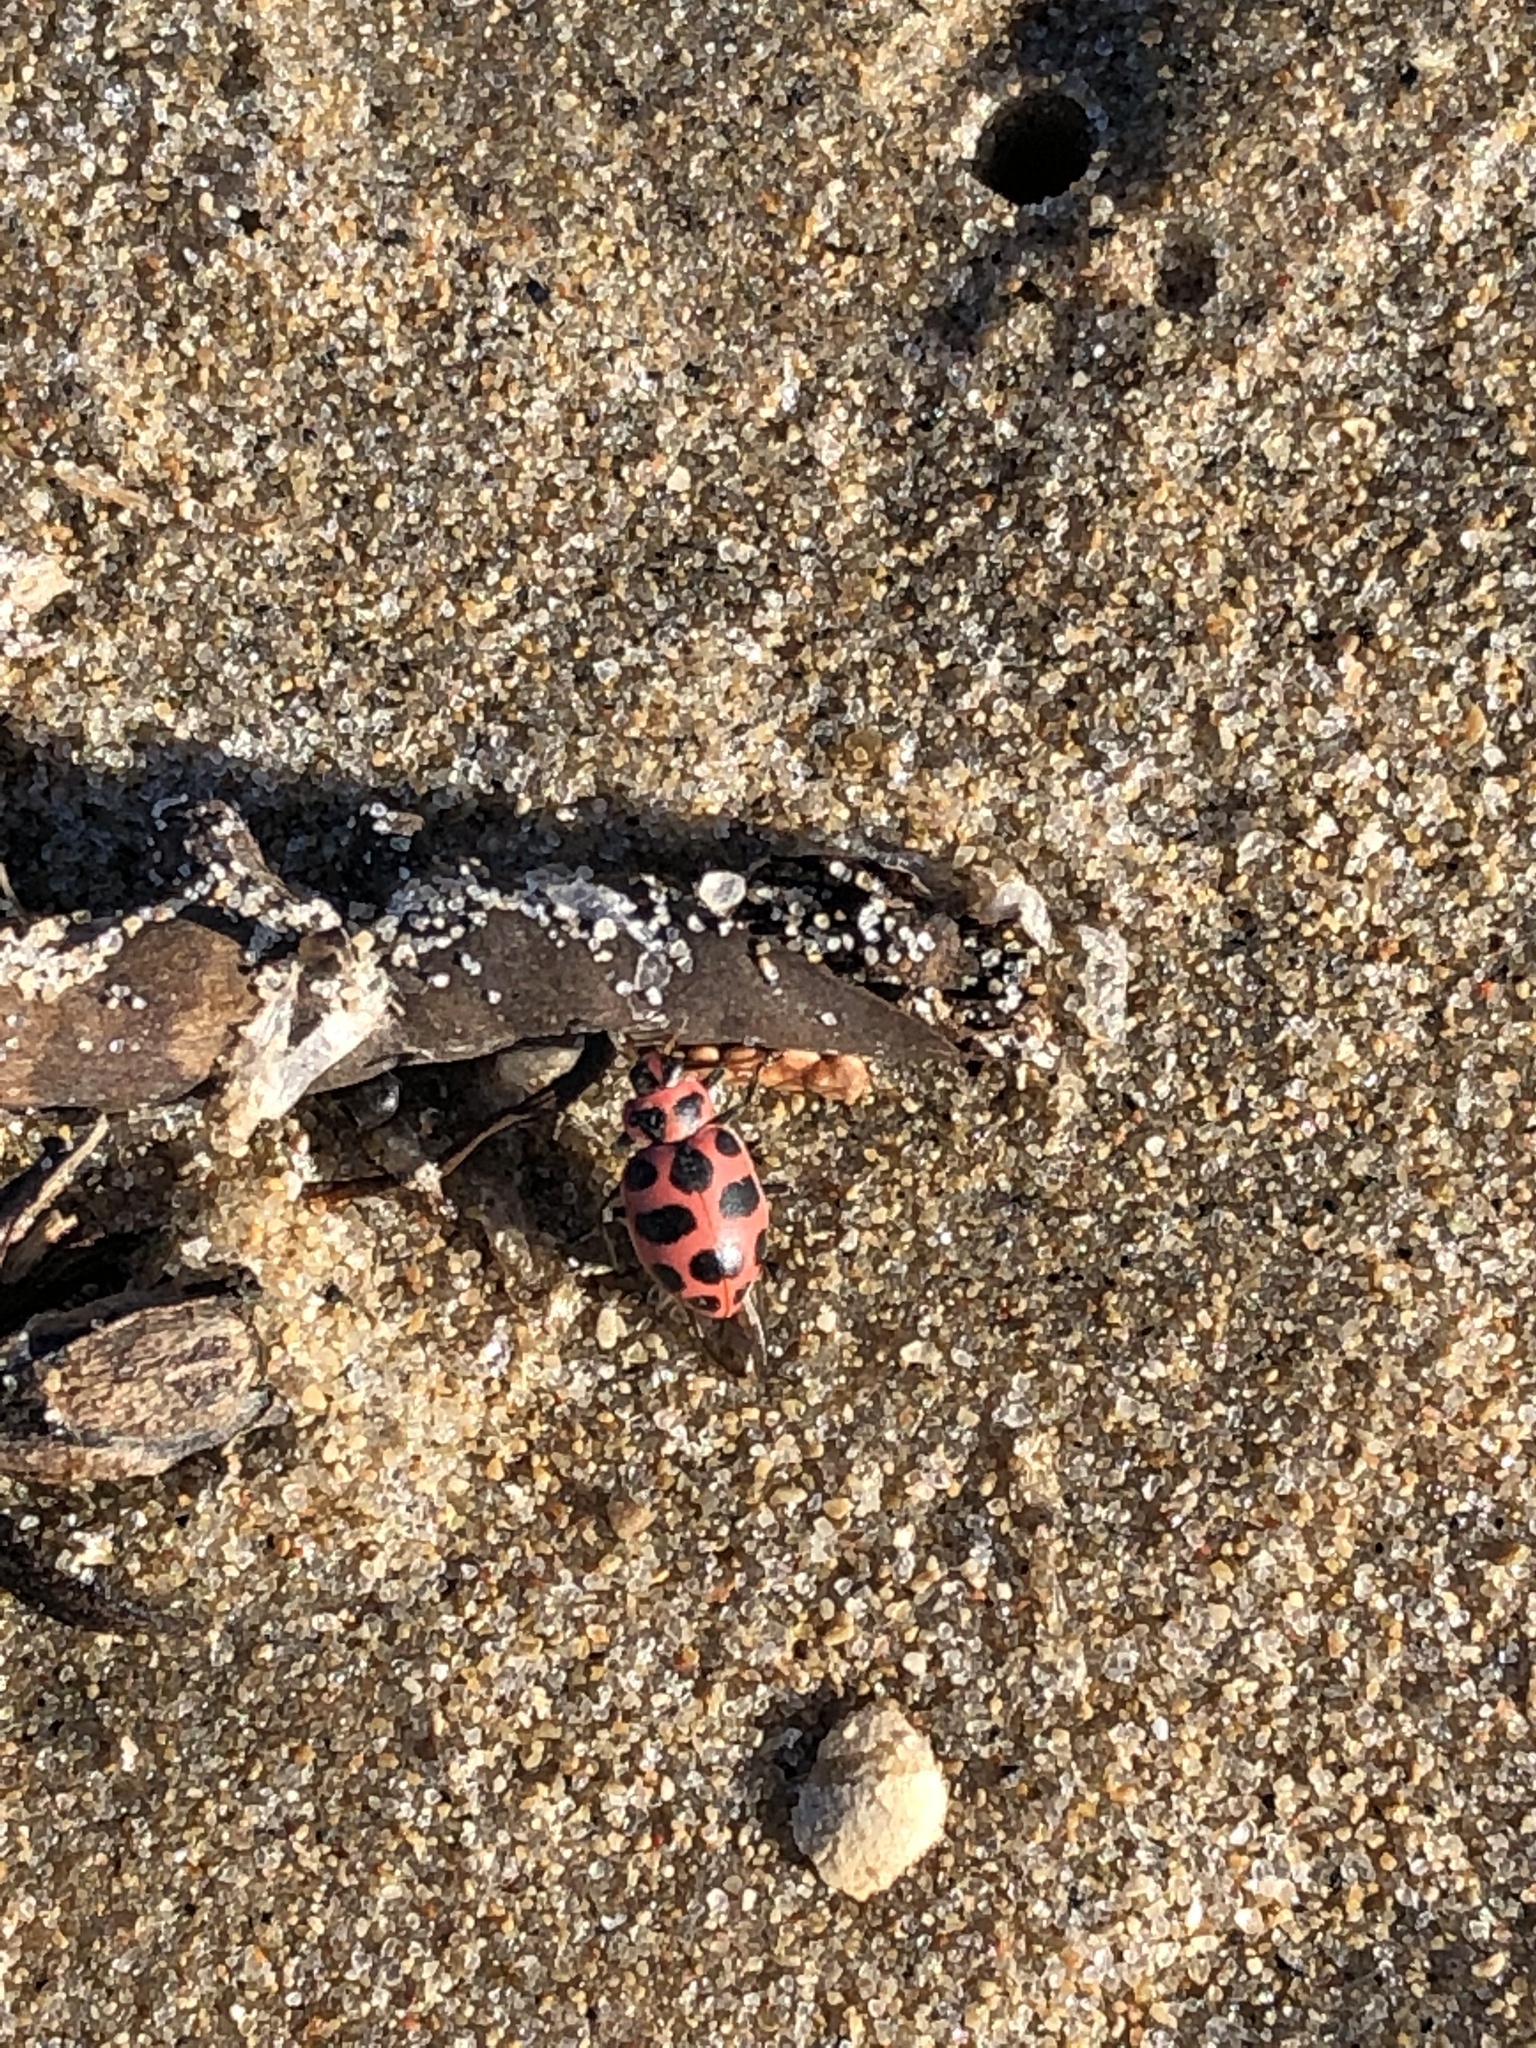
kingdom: Animalia
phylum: Arthropoda
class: Insecta
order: Coleoptera
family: Coccinellidae
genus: Coleomegilla
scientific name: Coleomegilla maculata
